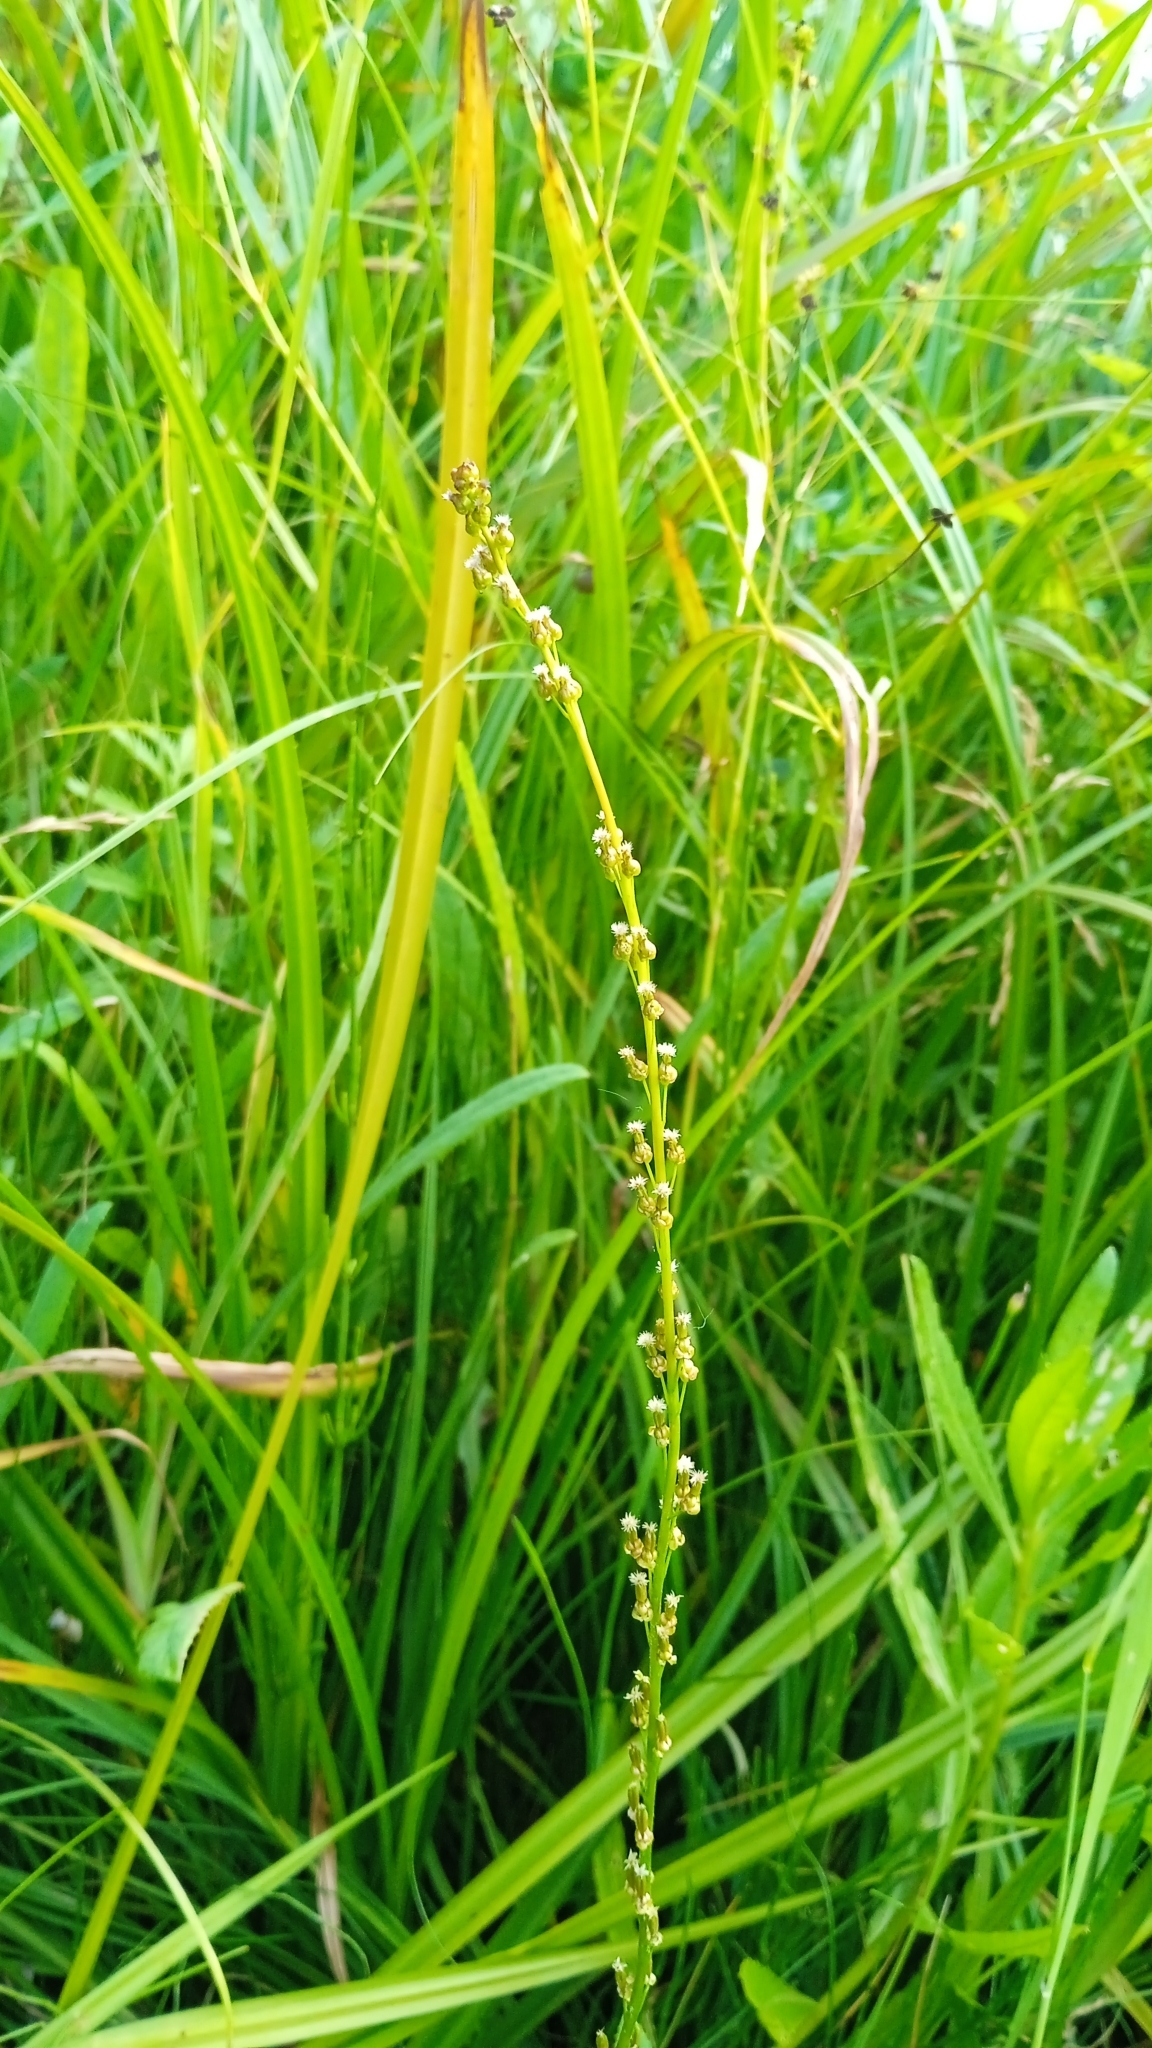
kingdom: Plantae
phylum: Tracheophyta
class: Liliopsida
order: Alismatales
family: Juncaginaceae
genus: Triglochin
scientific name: Triglochin palustris
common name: Marsh arrowgrass
